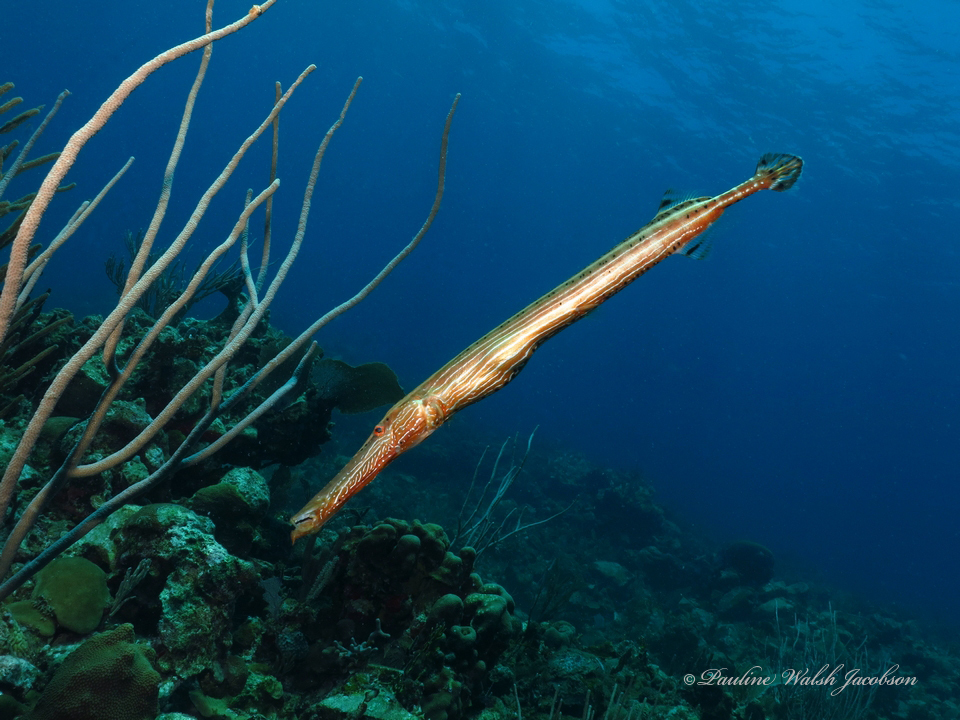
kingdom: Animalia
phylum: Chordata
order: Syngnathiformes
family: Aulostomidae
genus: Aulostomus
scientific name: Aulostomus maculatus
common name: West atlantic trumpetfish
